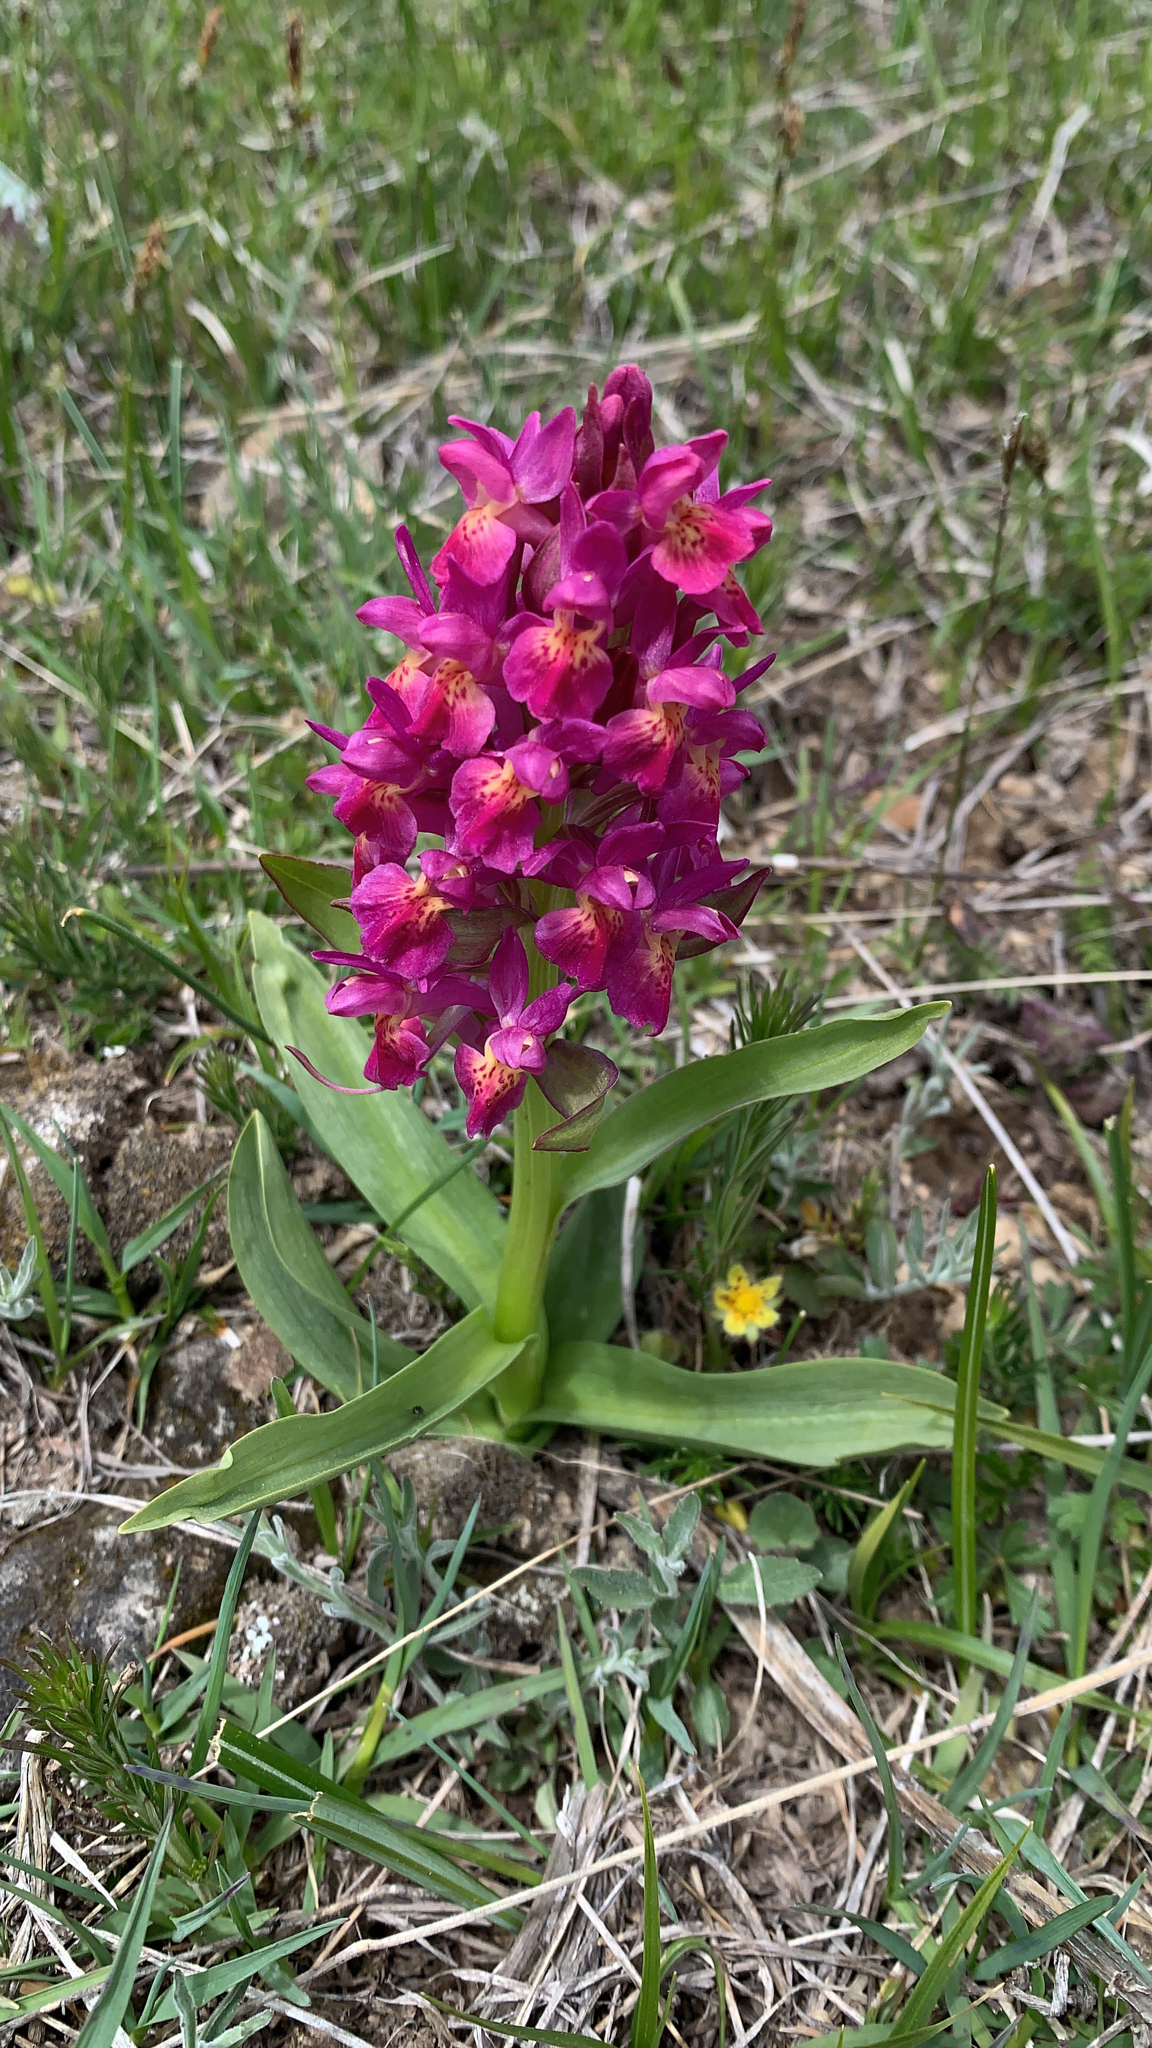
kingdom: Plantae
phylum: Tracheophyta
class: Liliopsida
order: Asparagales
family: Orchidaceae
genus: Dactylorhiza
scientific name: Dactylorhiza sambucina
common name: Elder-flowered orchid
